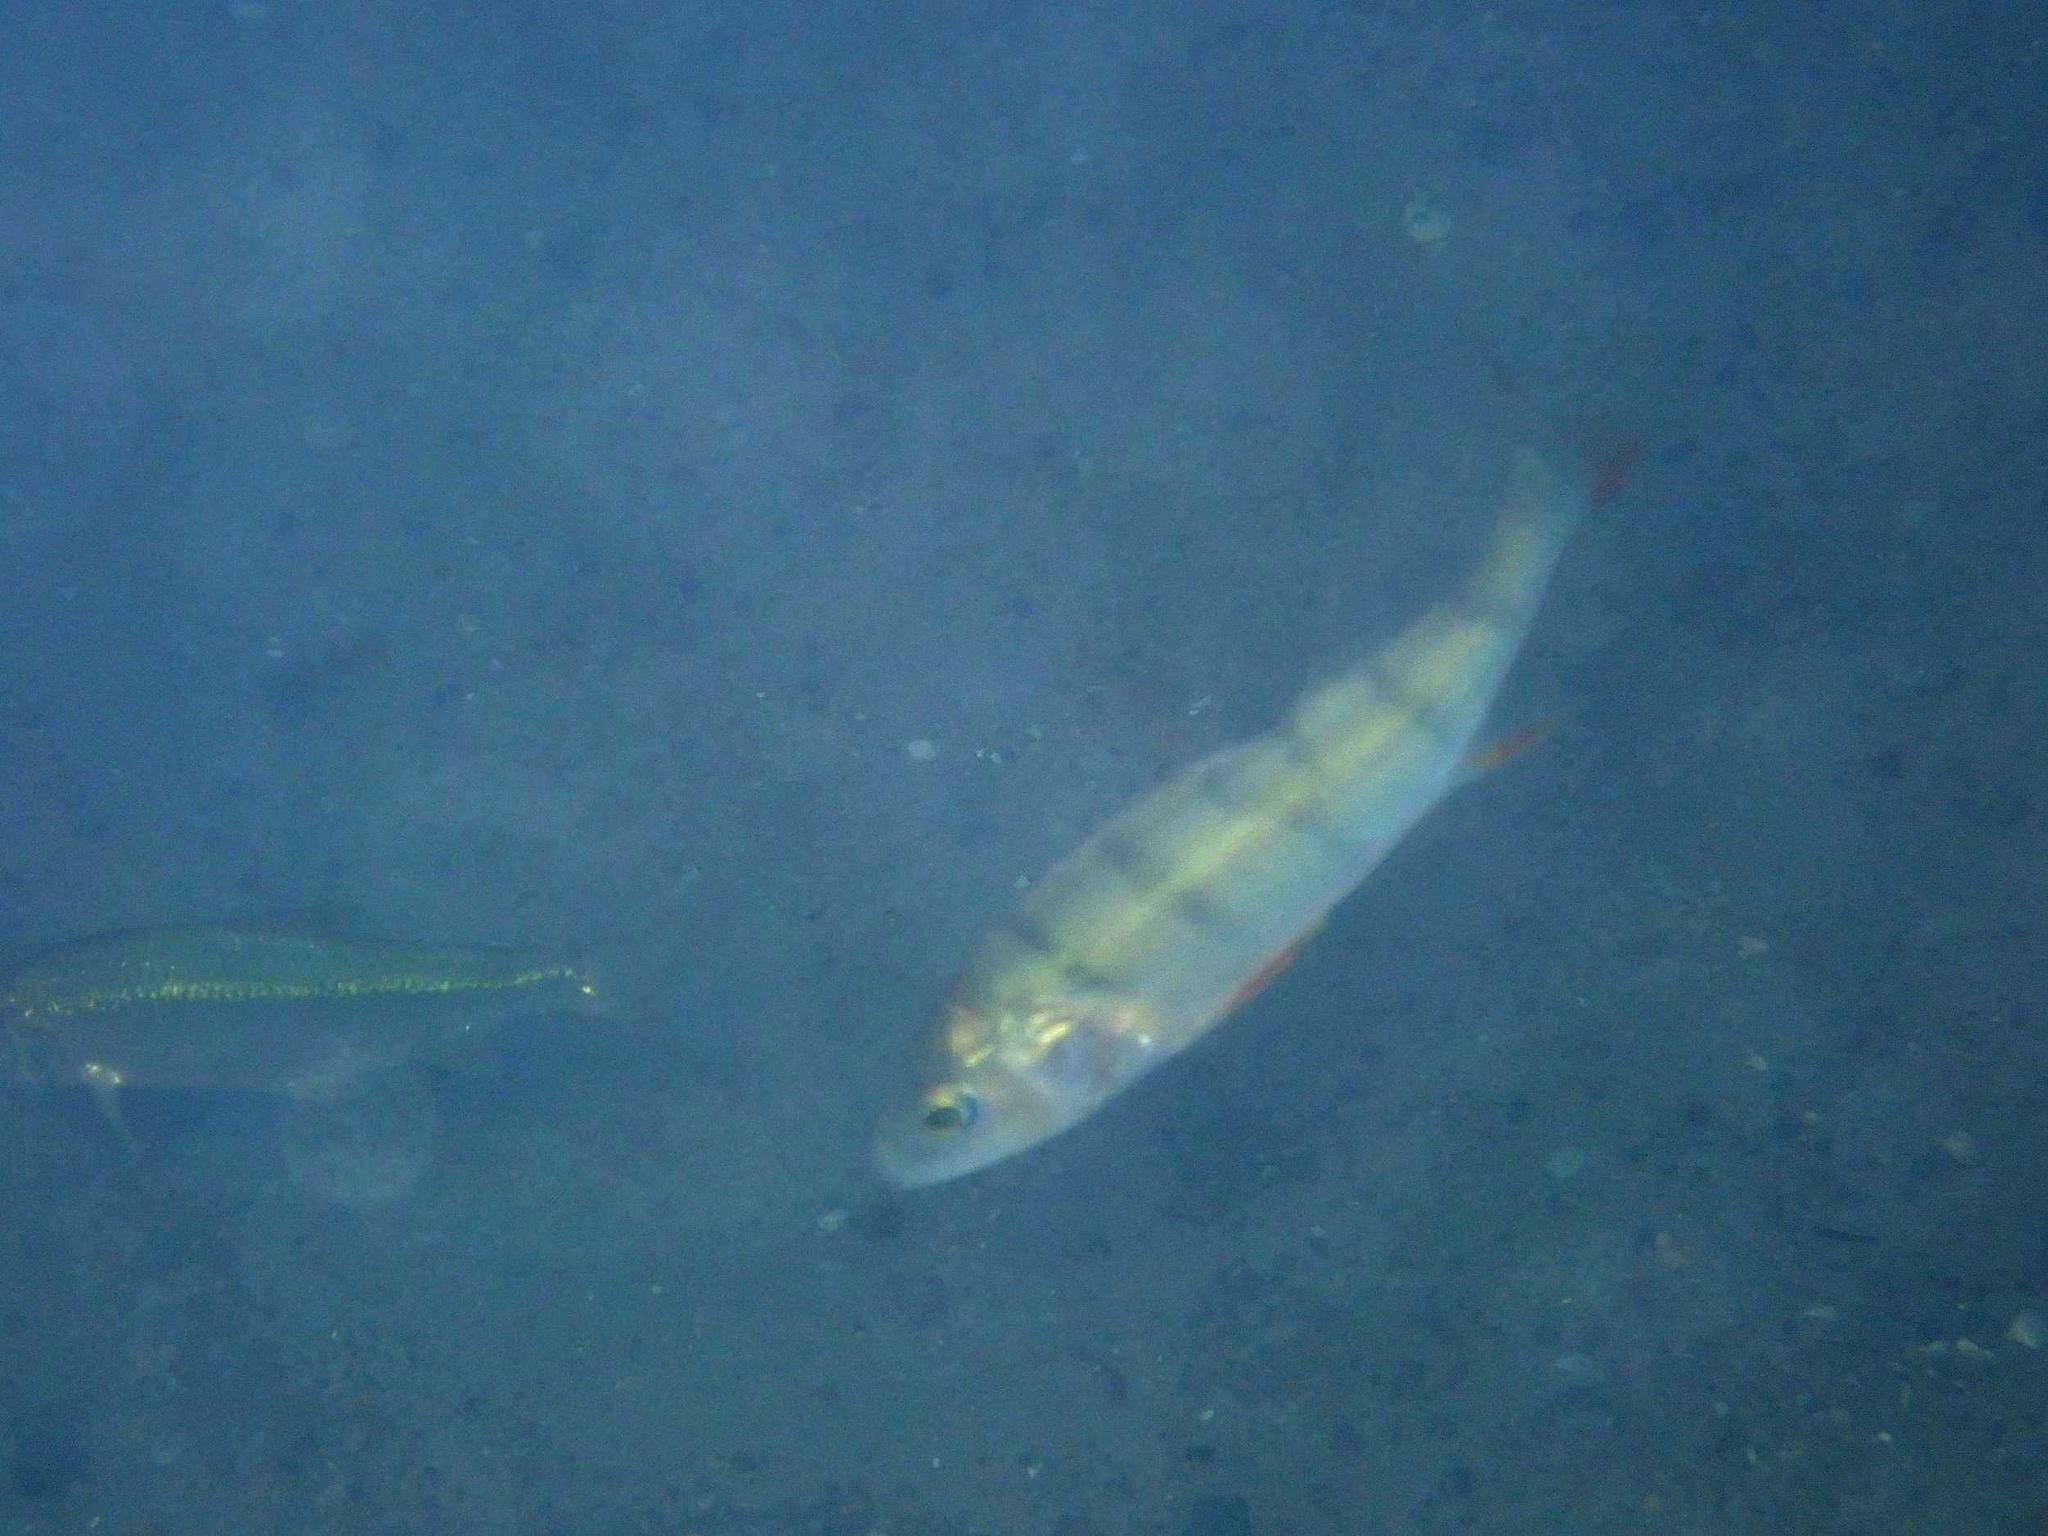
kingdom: Animalia
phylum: Chordata
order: Perciformes
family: Percidae
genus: Perca
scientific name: Perca fluviatilis
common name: Perch
